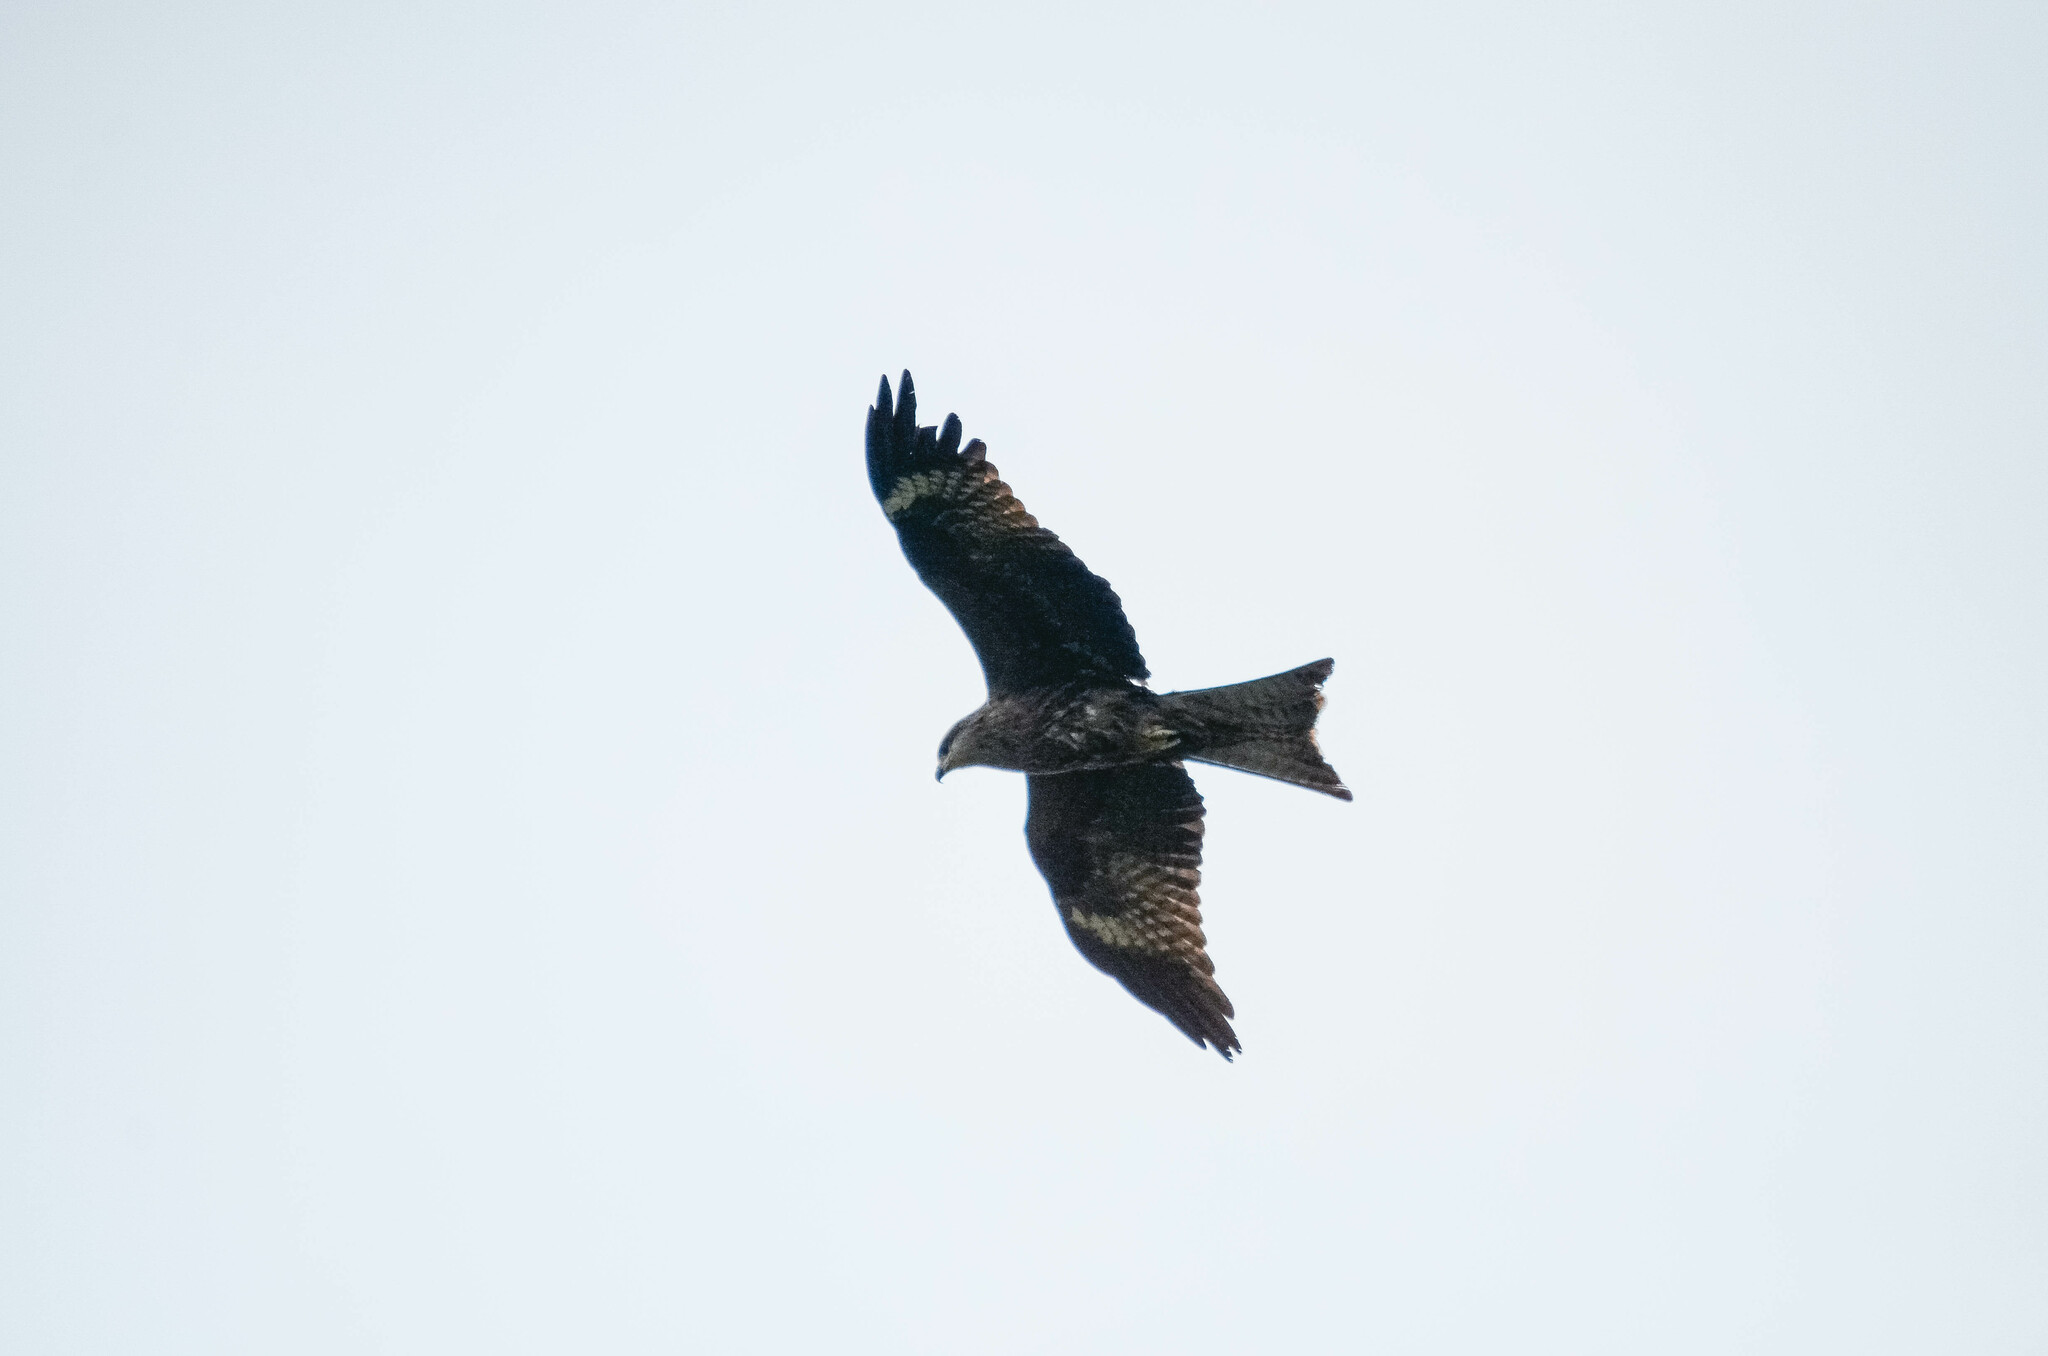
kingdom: Animalia
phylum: Chordata
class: Aves
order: Accipitriformes
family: Accipitridae
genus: Milvus
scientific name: Milvus migrans
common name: Black kite
